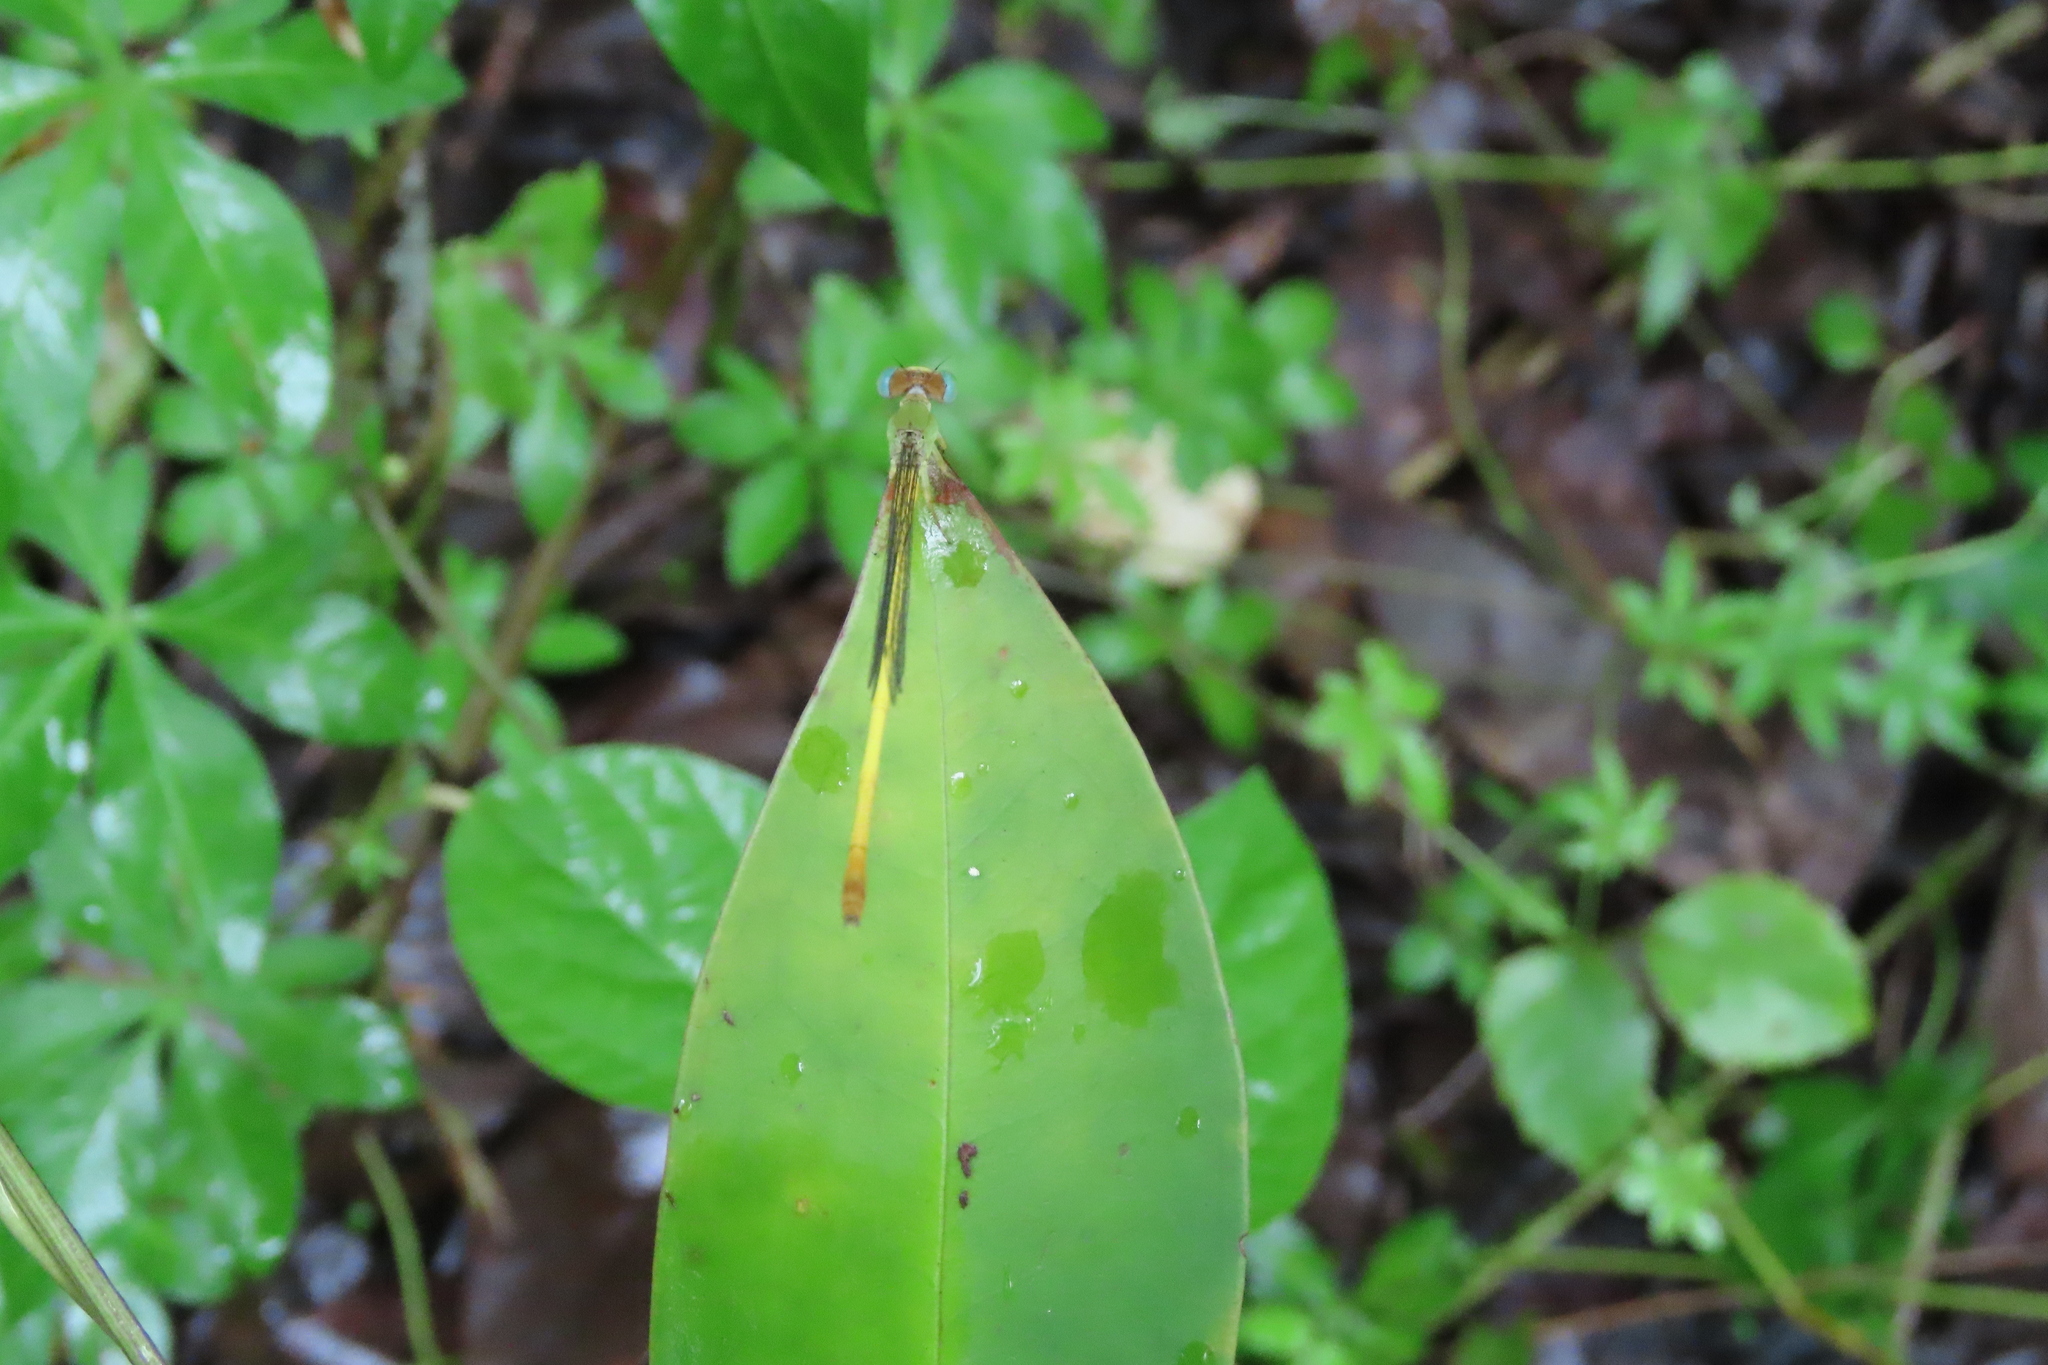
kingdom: Animalia
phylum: Arthropoda
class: Insecta
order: Odonata
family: Coenagrionidae
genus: Ceriagrion
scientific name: Ceriagrion coromandelianum
